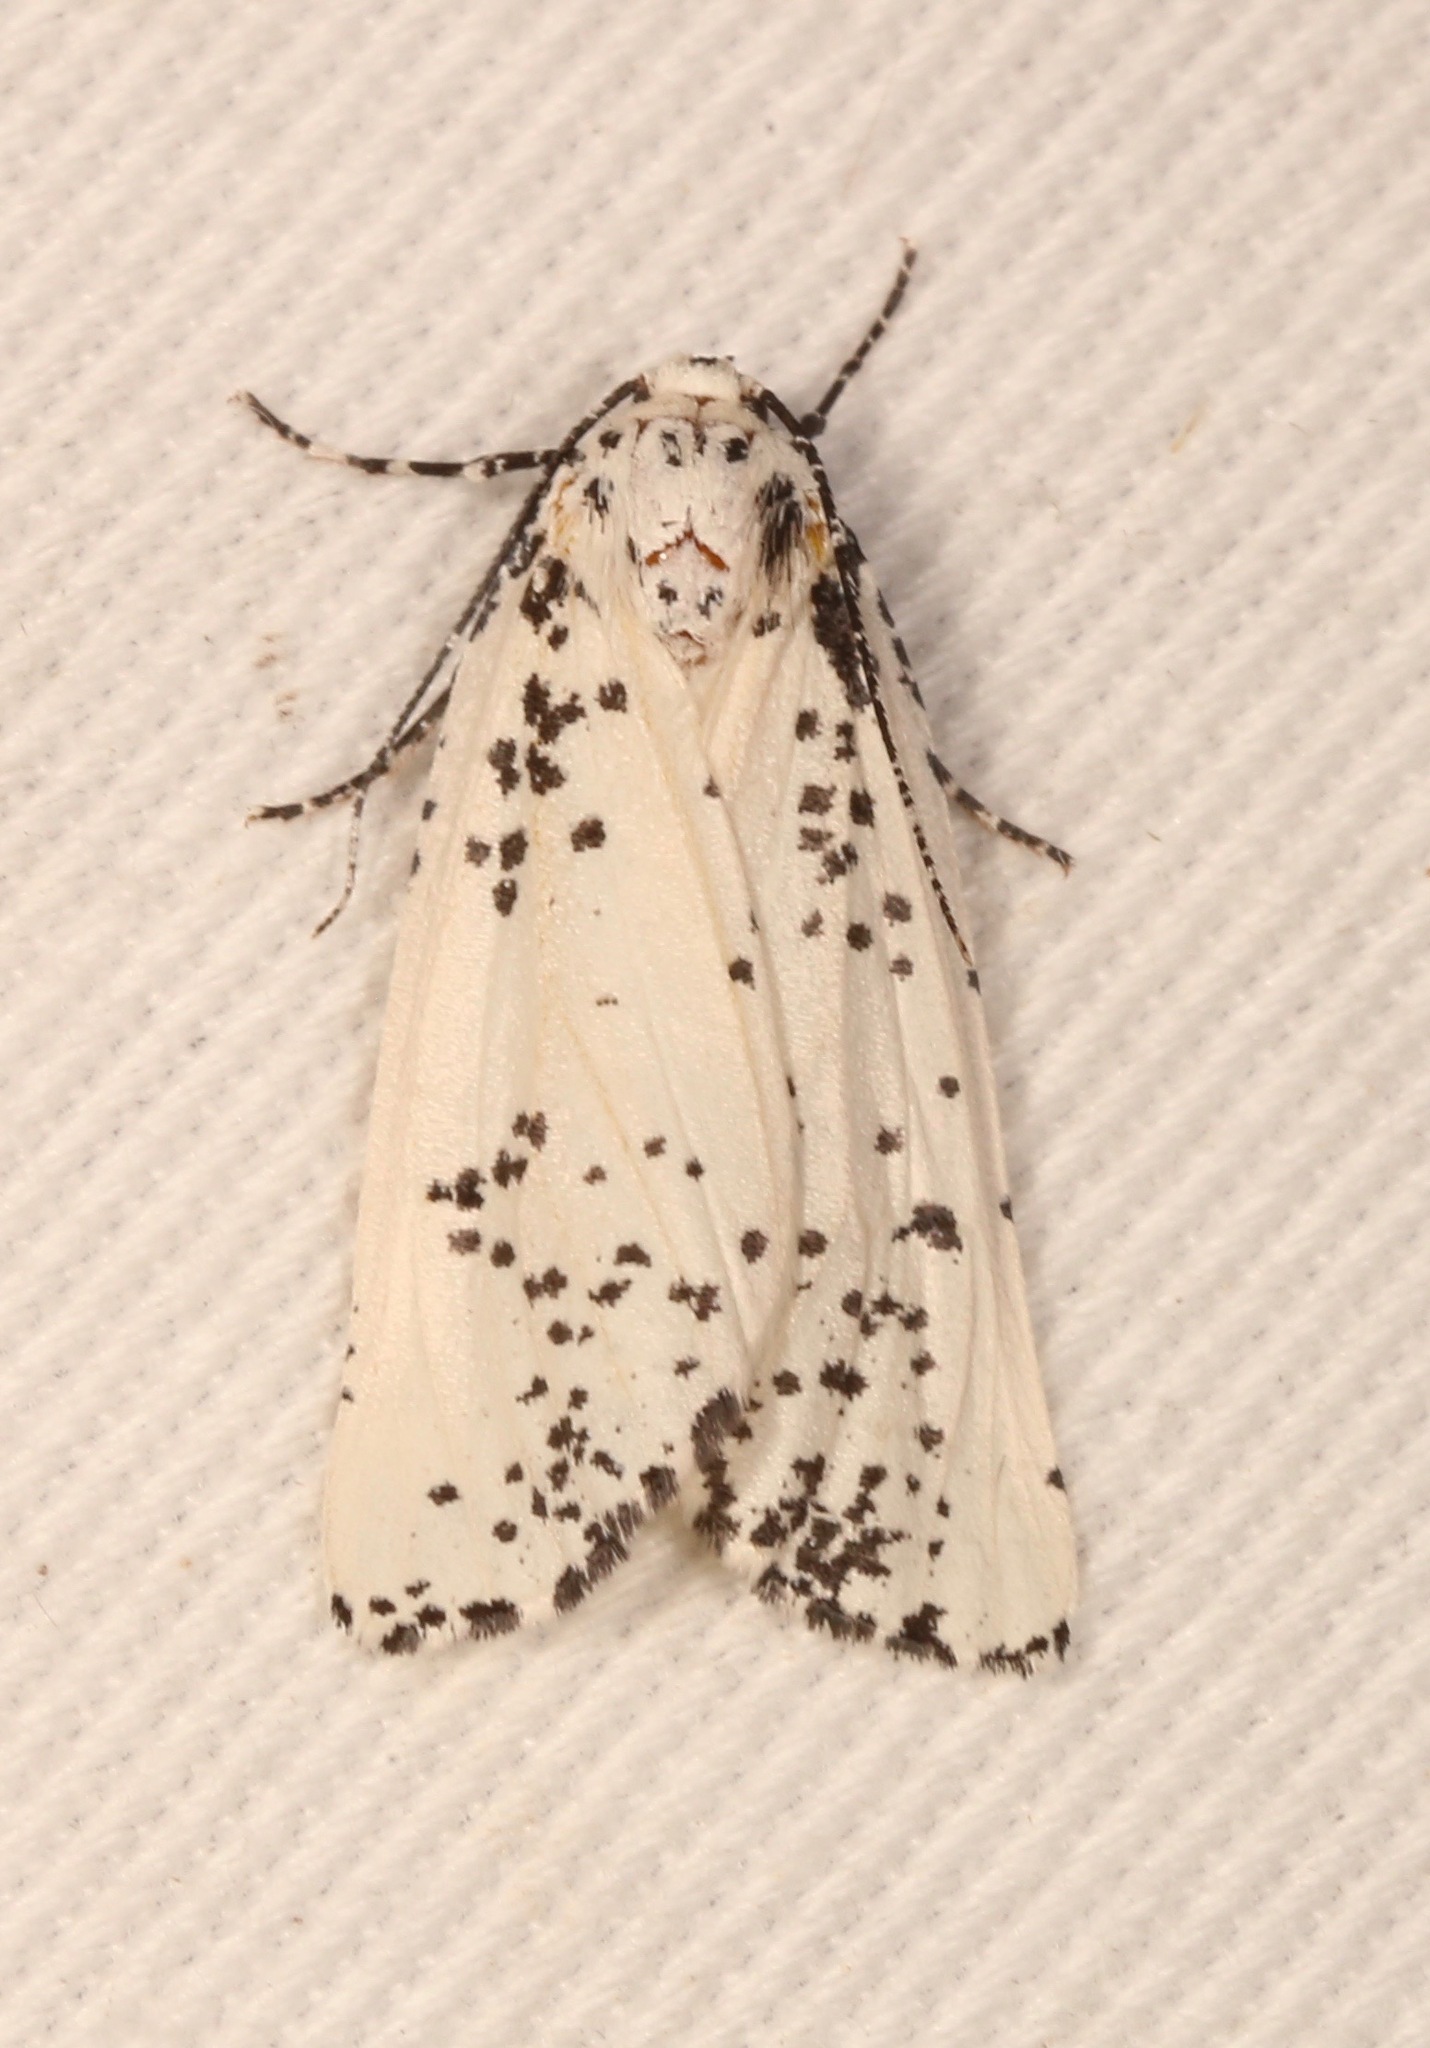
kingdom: Animalia
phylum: Arthropoda
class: Insecta
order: Lepidoptera
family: Geometridae
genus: Eucaterva
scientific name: Eucaterva variaria
